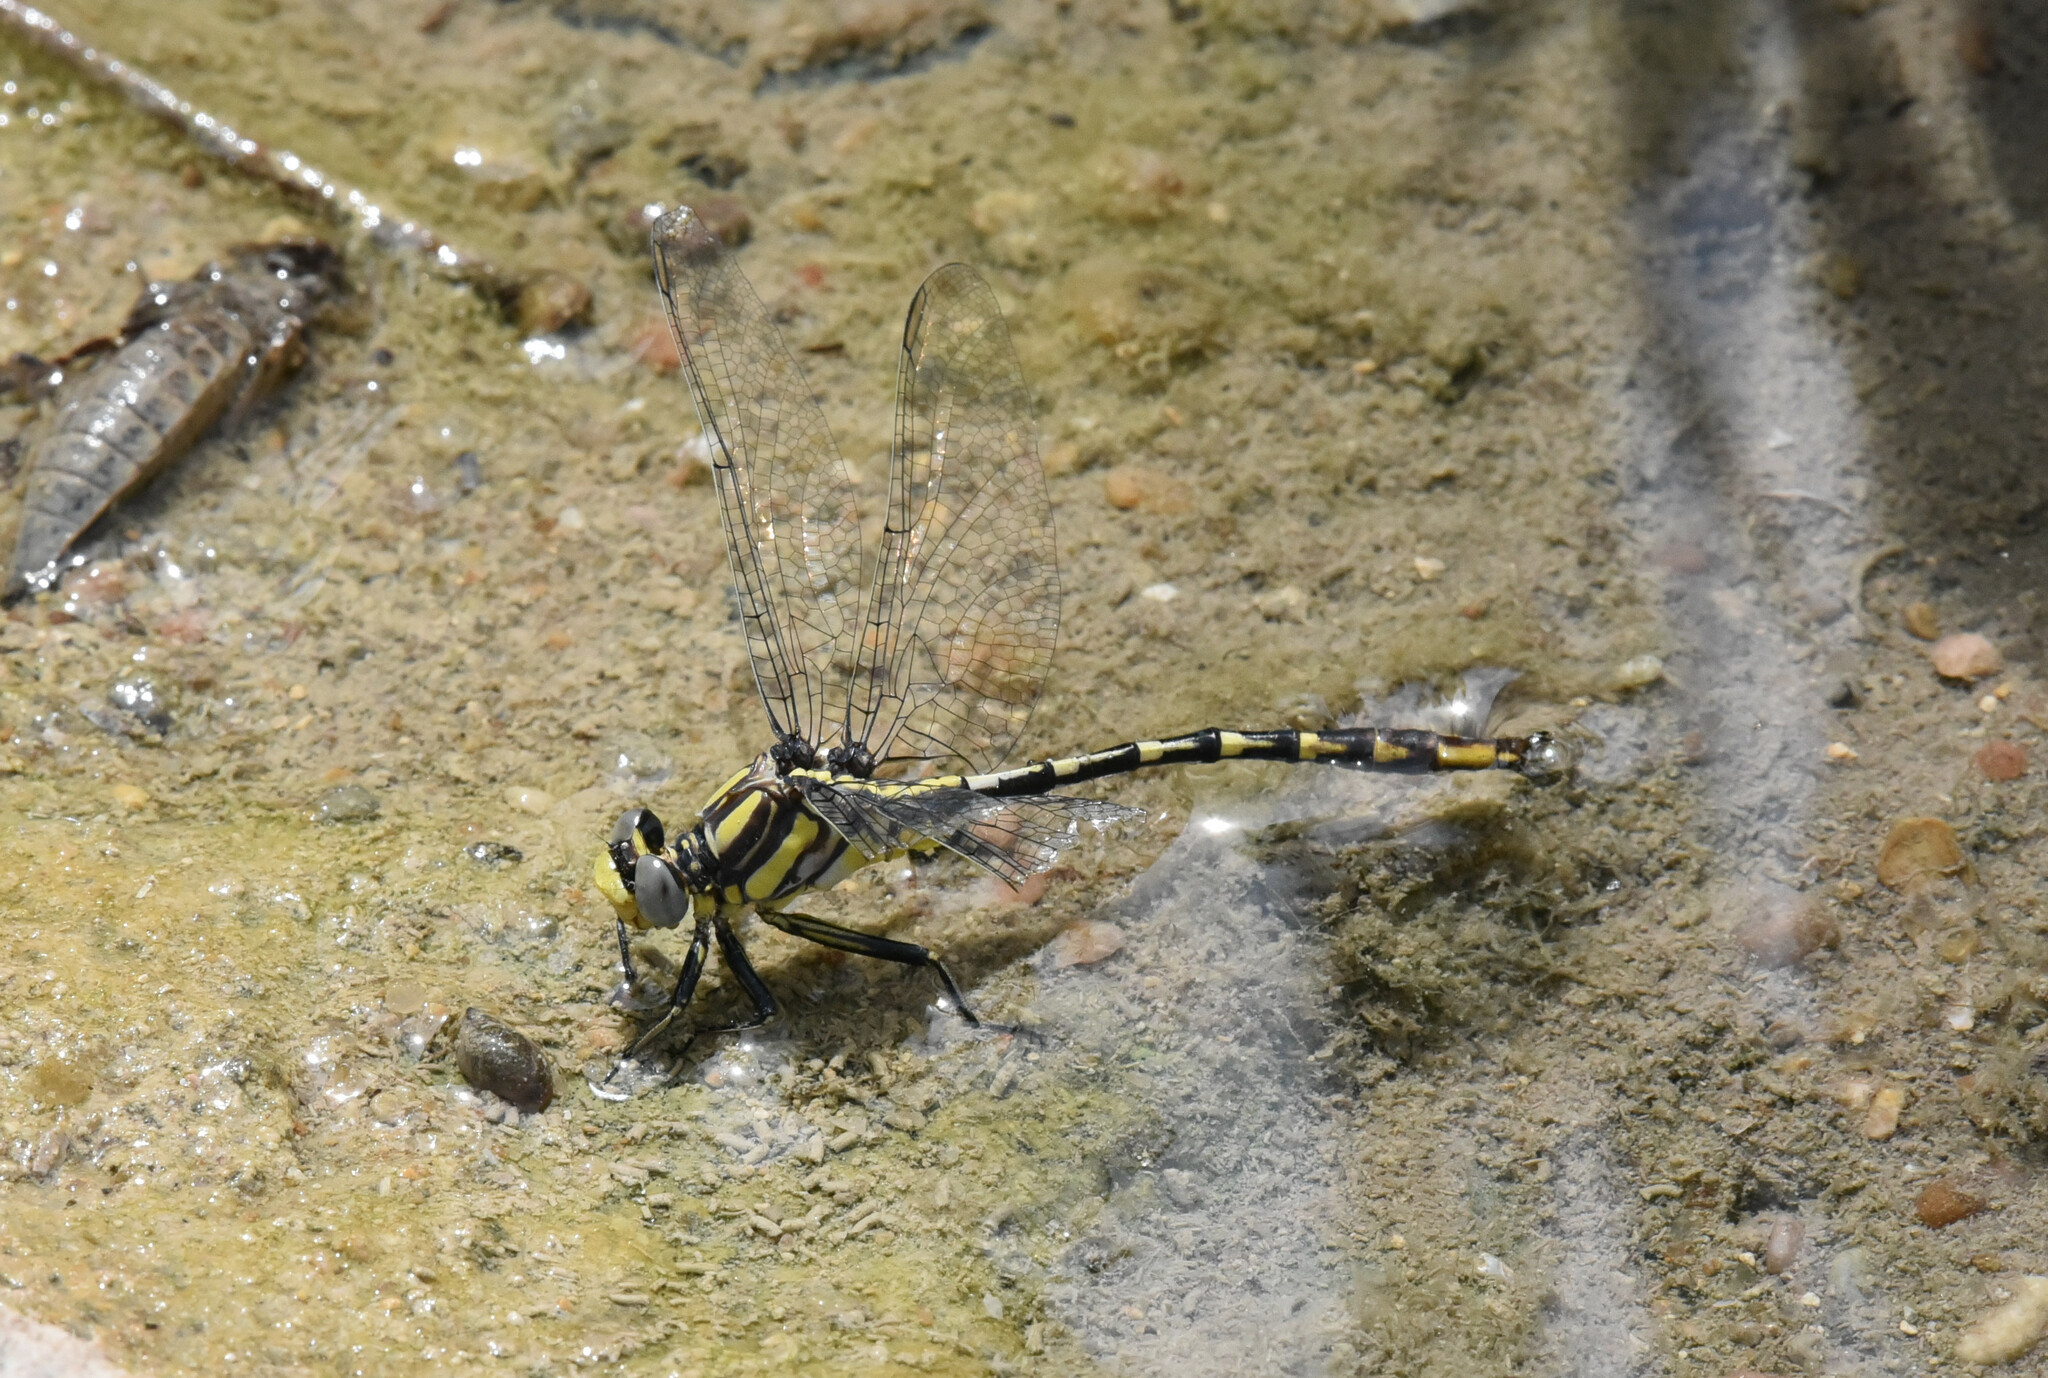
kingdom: Animalia
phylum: Arthropoda
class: Insecta
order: Odonata
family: Gomphidae
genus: Phanogomphus
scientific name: Phanogomphus militaris
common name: Sulphur-tipped clubtail
